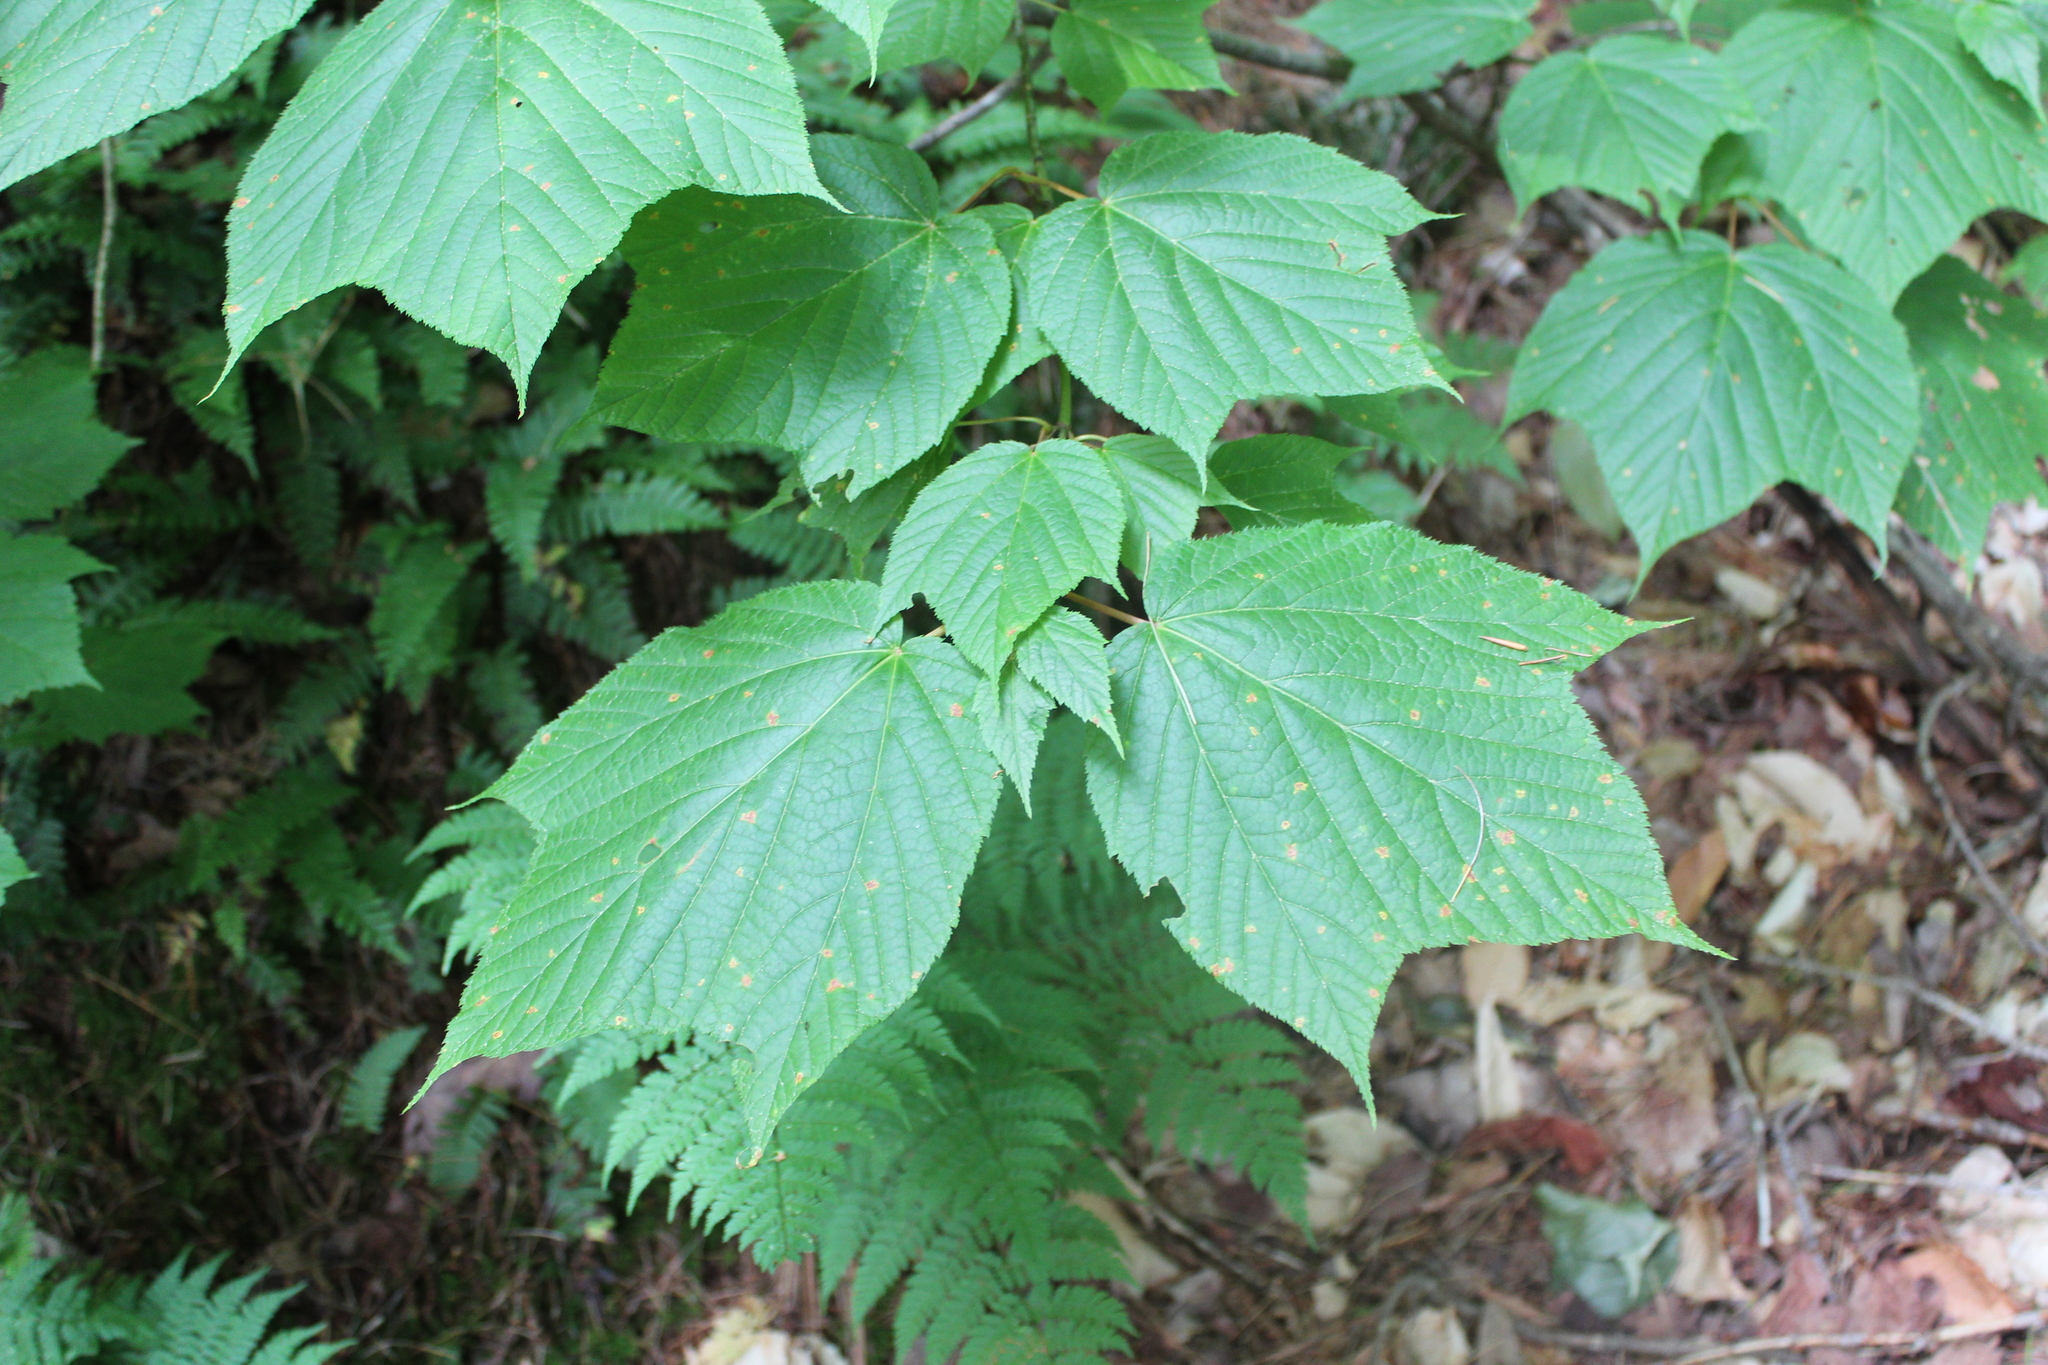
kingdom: Plantae
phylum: Tracheophyta
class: Magnoliopsida
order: Sapindales
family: Sapindaceae
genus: Acer
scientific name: Acer pensylvanicum
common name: Moosewood
